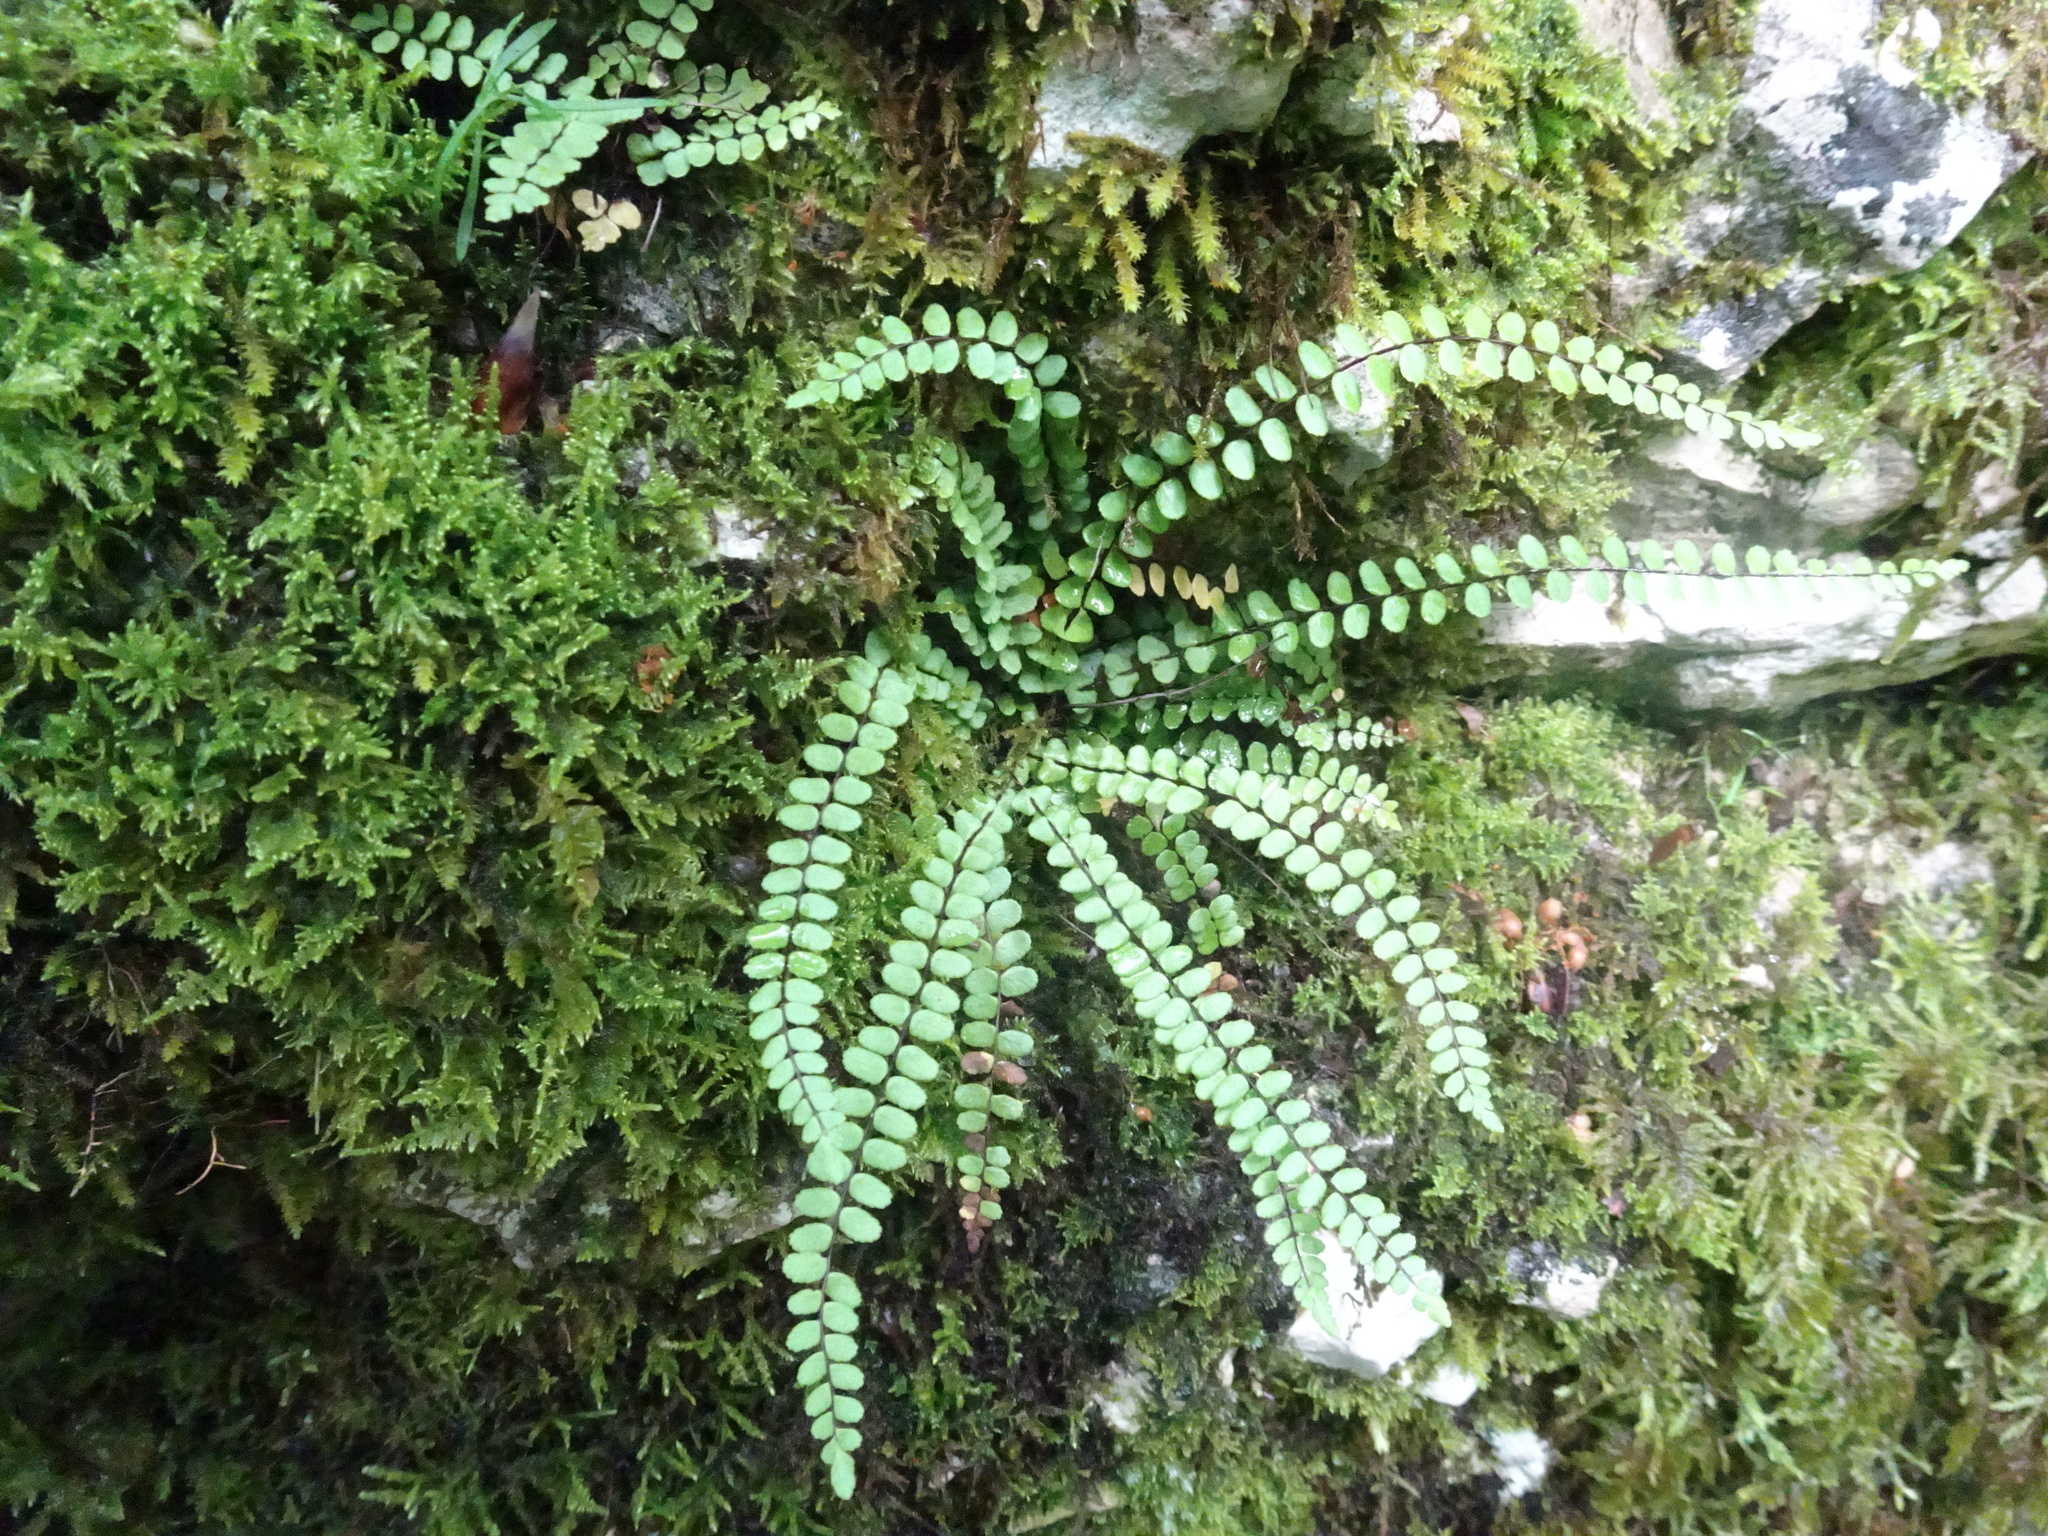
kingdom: Plantae
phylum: Tracheophyta
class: Polypodiopsida
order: Polypodiales
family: Aspleniaceae
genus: Asplenium
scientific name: Asplenium trichomanes
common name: Maidenhair spleenwort
